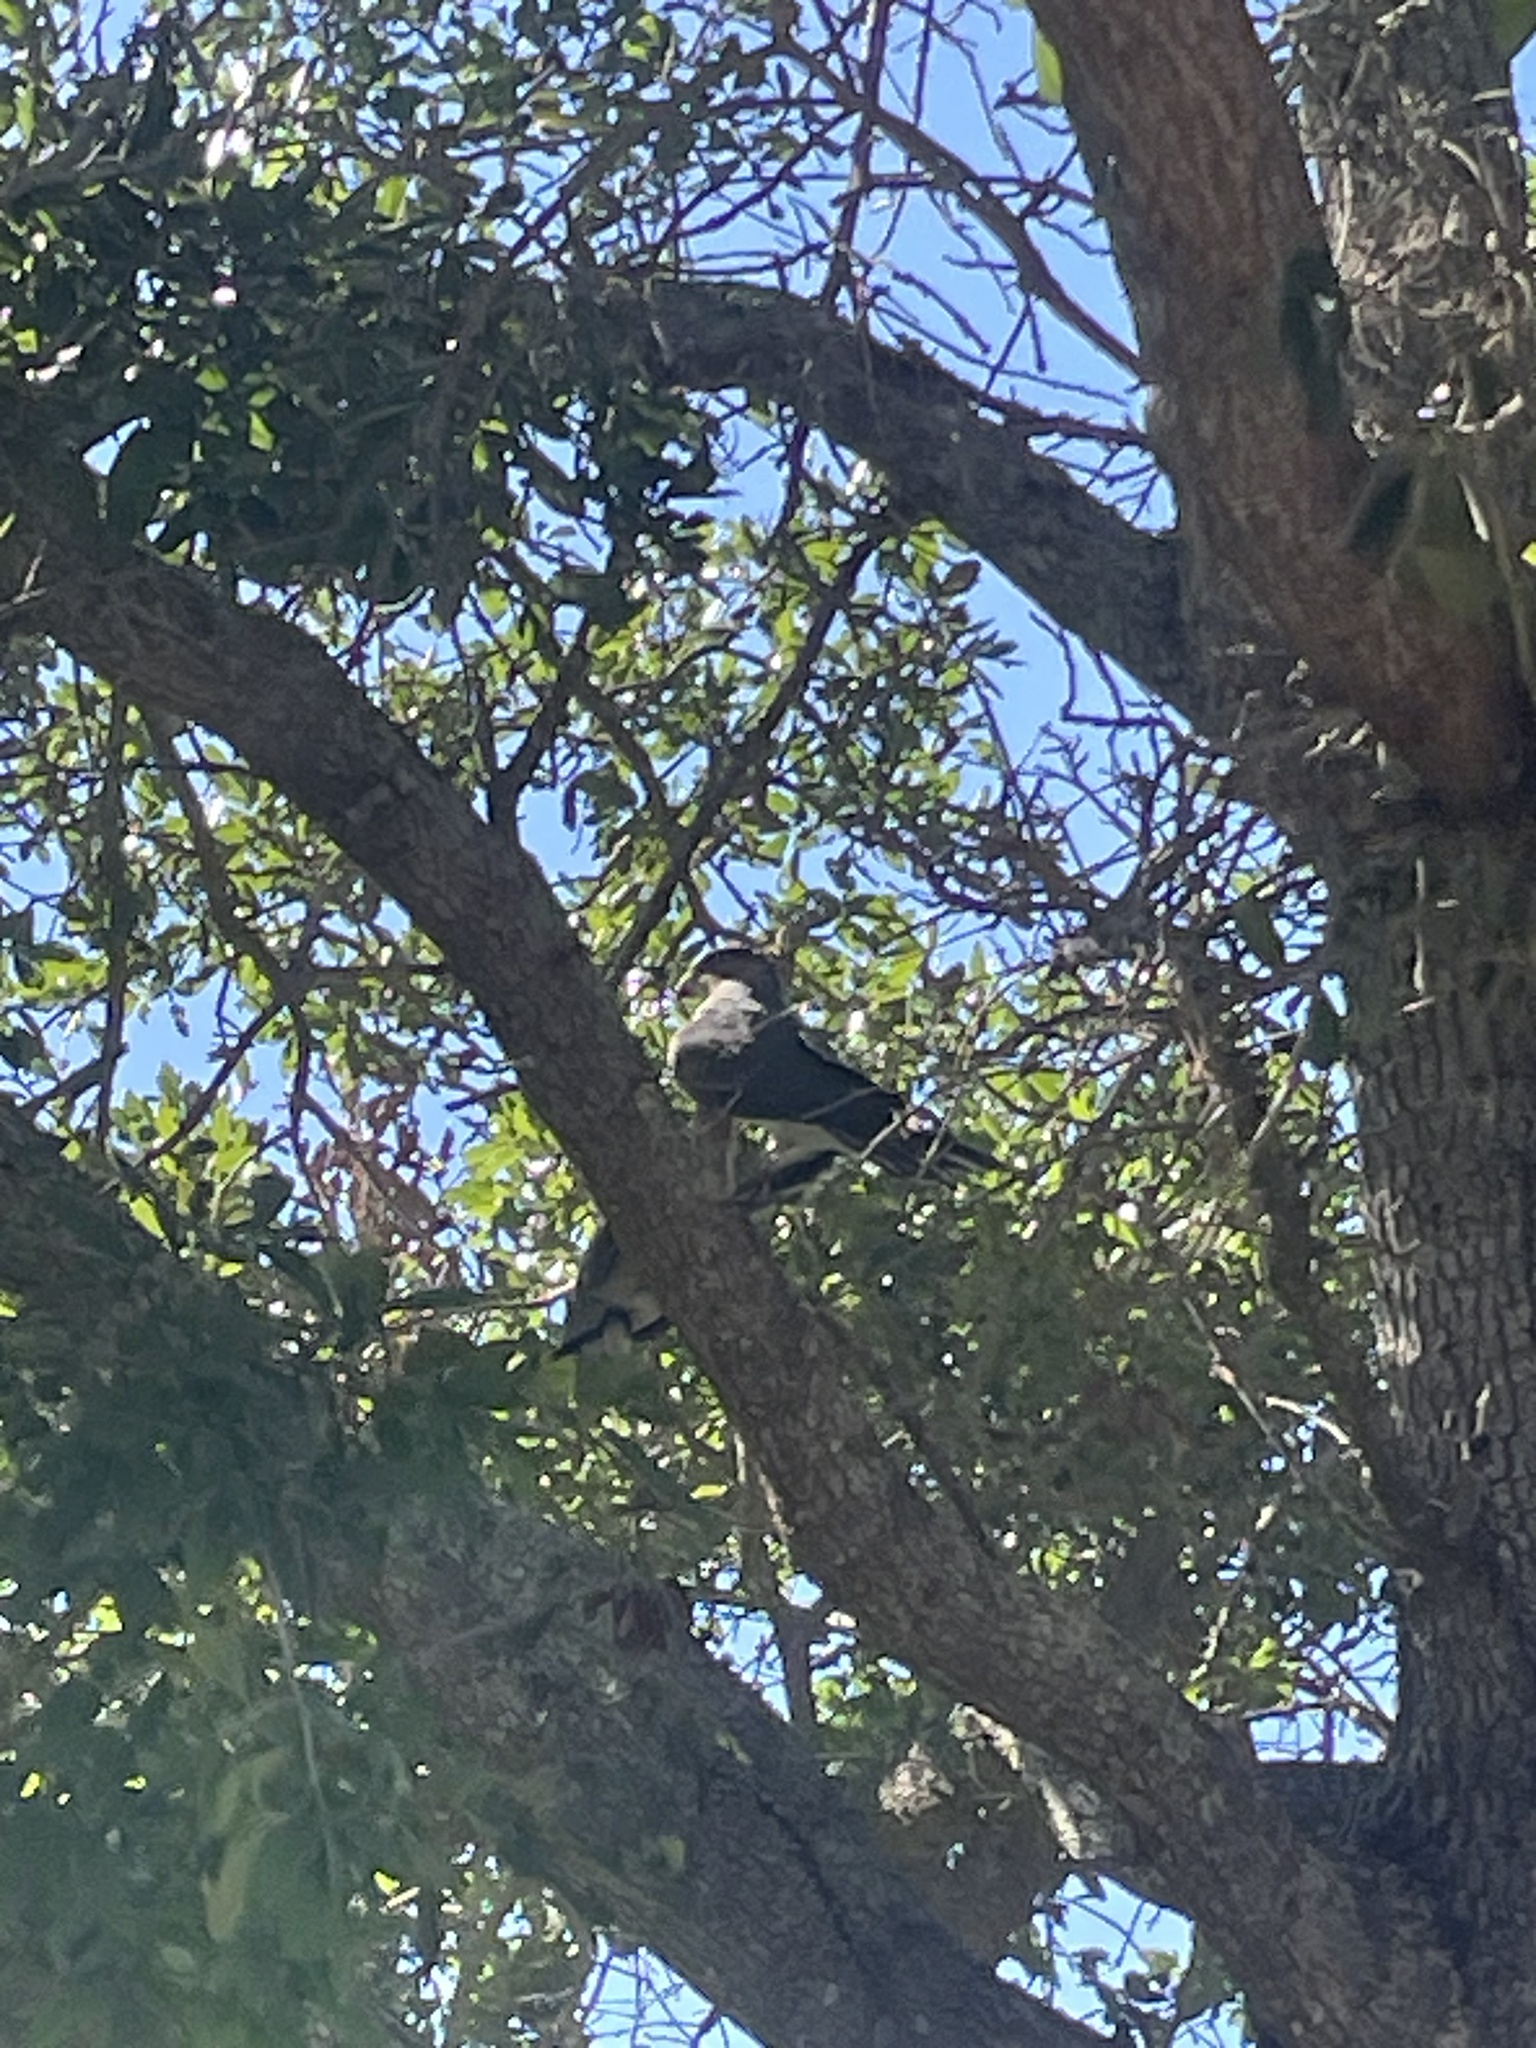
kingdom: Animalia
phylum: Chordata
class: Aves
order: Accipitriformes
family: Accipitridae
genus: Accipiter
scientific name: Accipiter cooperii
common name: Cooper's hawk
